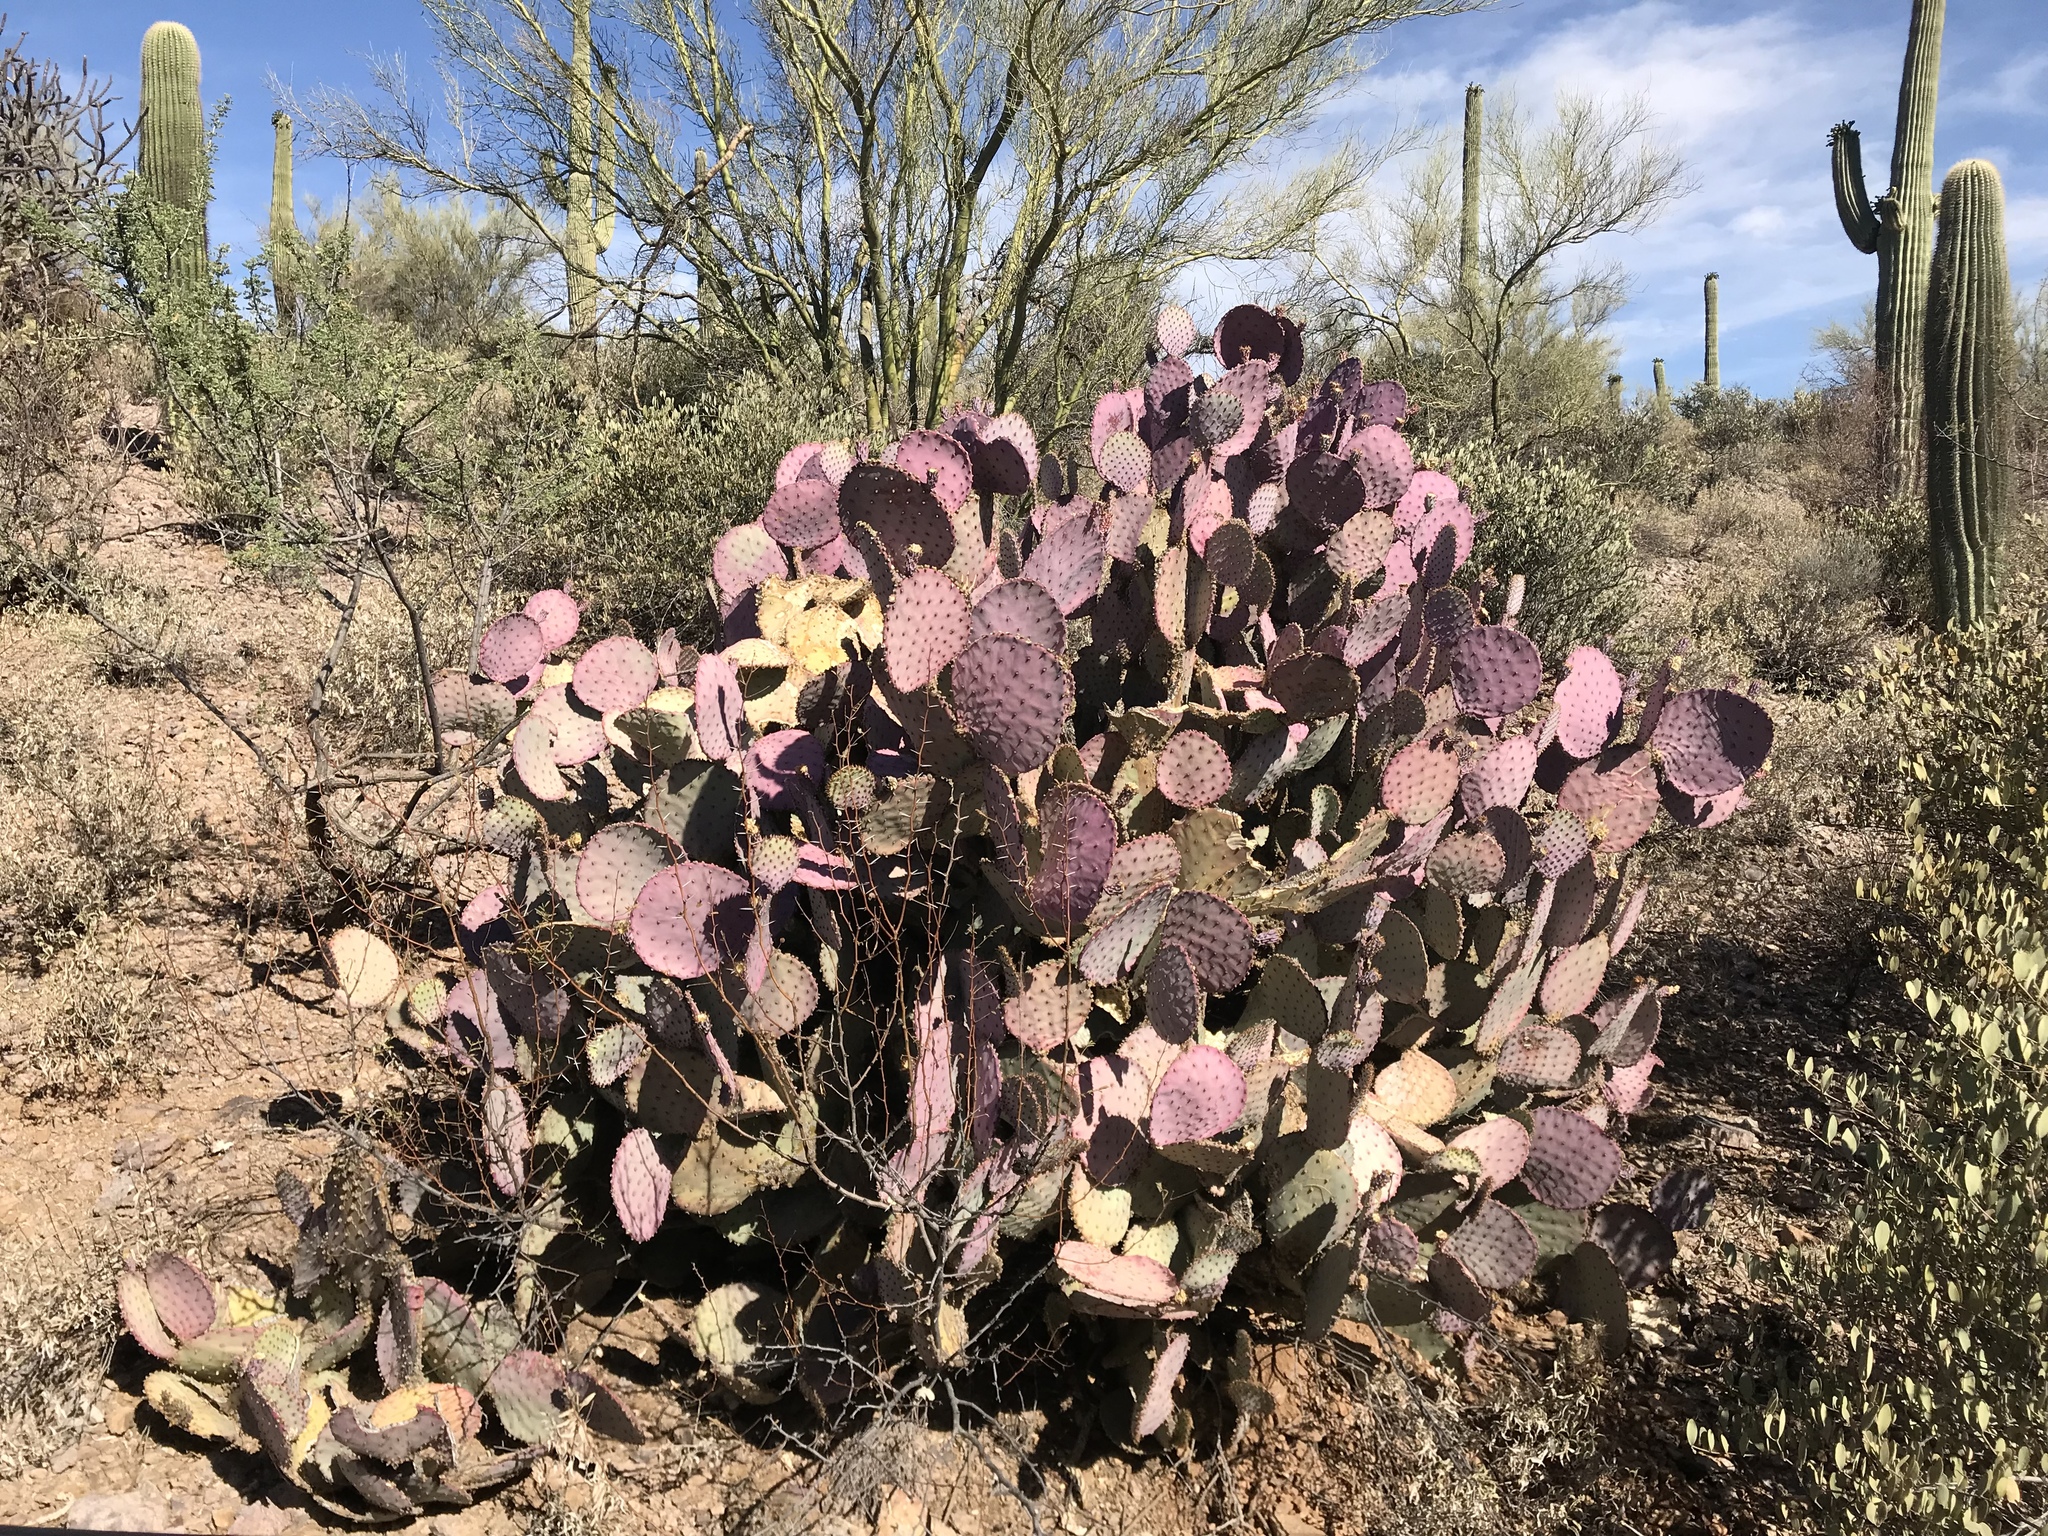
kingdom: Plantae
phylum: Tracheophyta
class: Magnoliopsida
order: Caryophyllales
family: Cactaceae
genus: Opuntia
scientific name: Opuntia gosseliniana
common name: Violet prickly-pear
